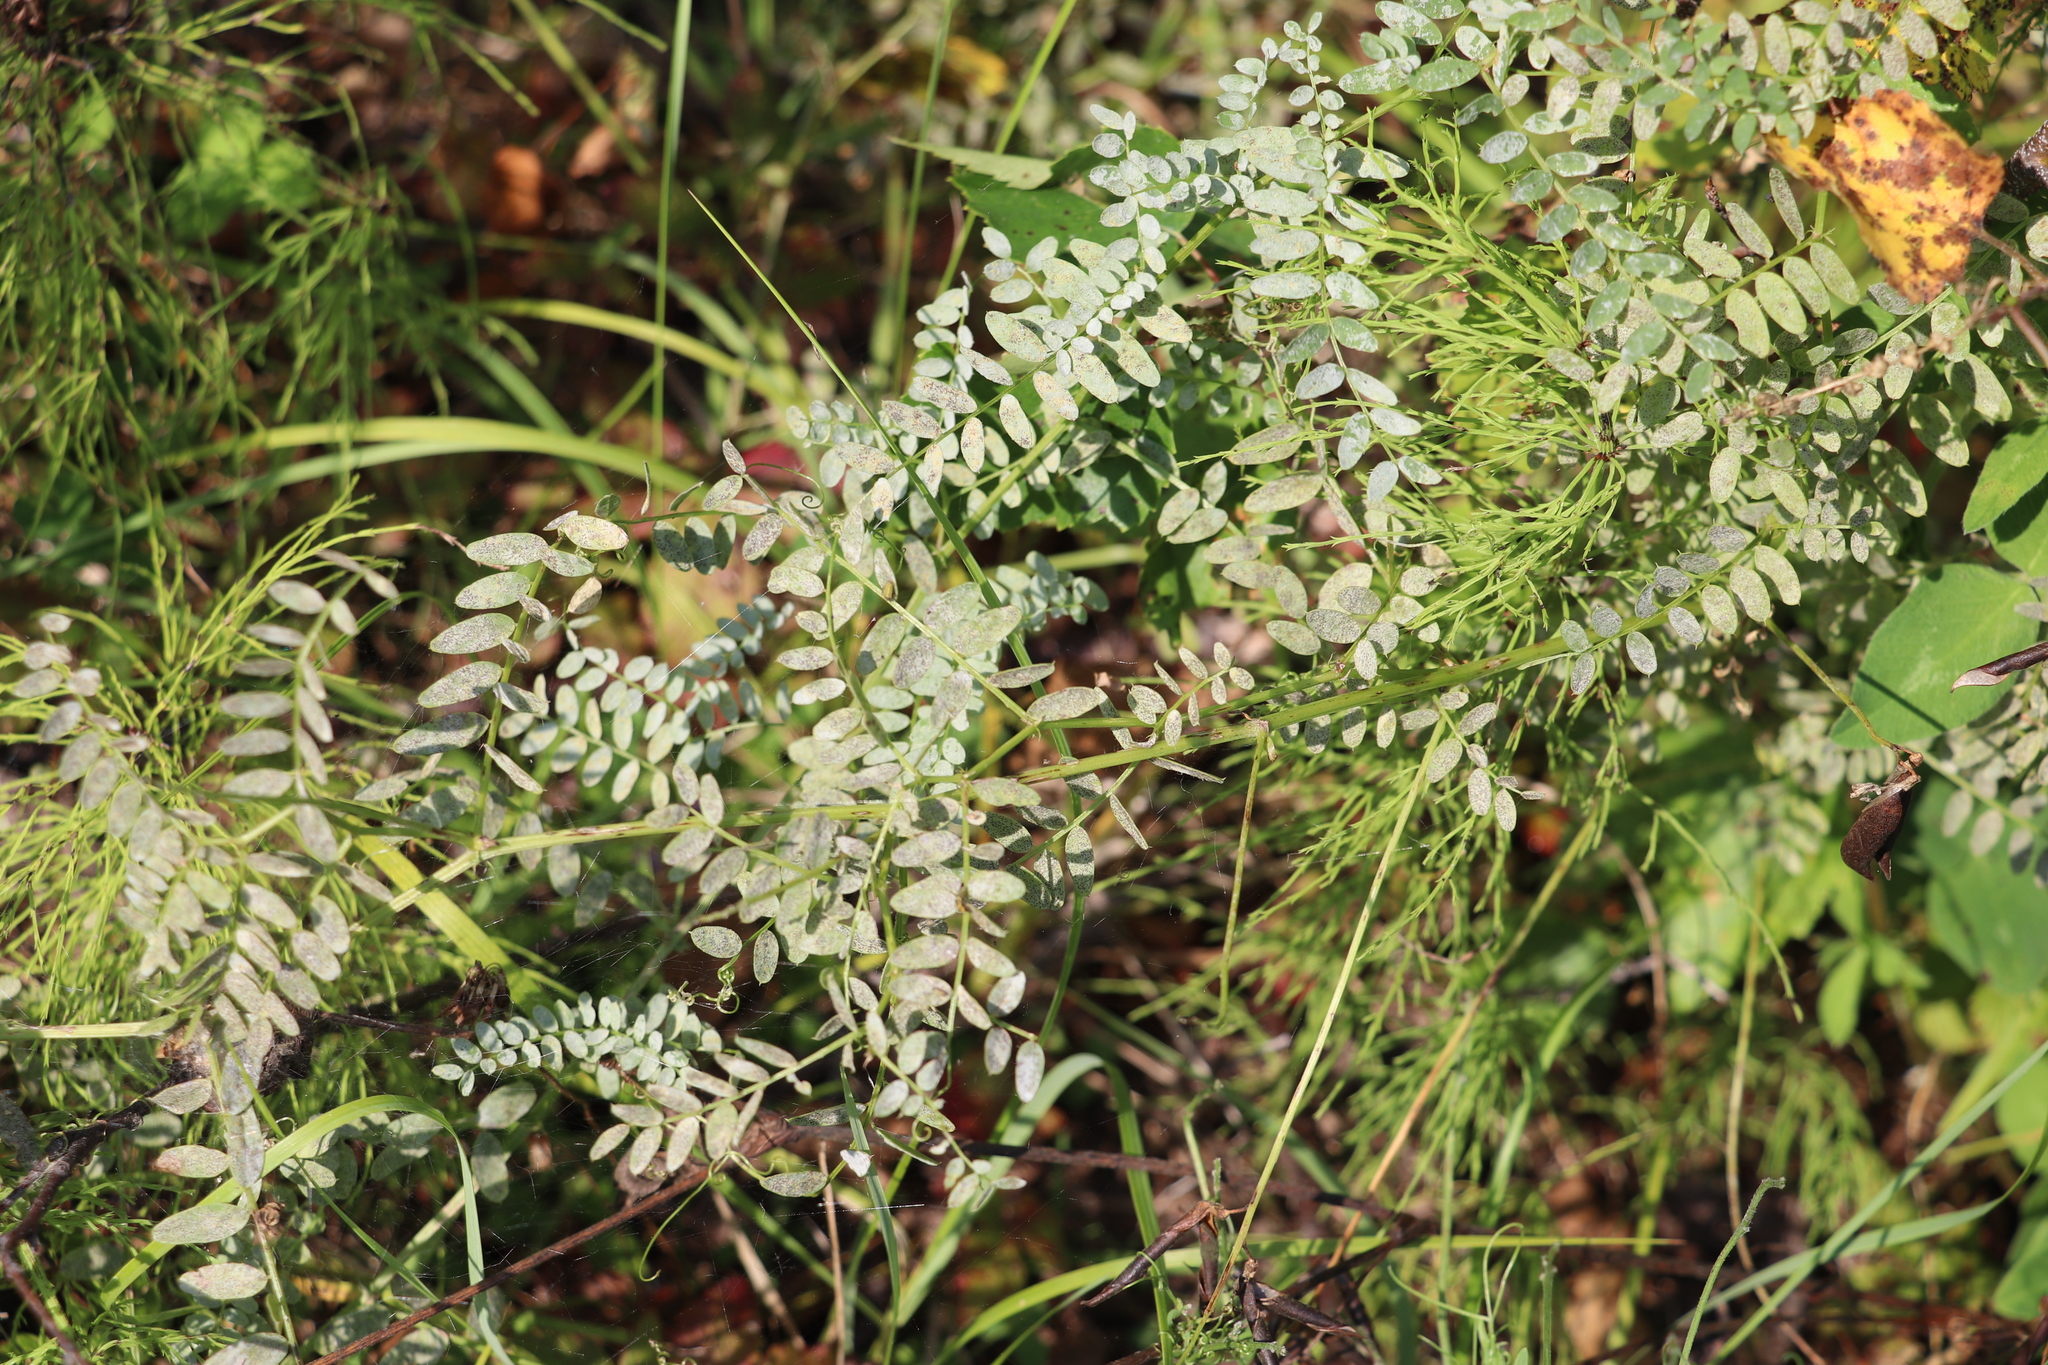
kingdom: Plantae
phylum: Tracheophyta
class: Magnoliopsida
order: Fabales
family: Fabaceae
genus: Vicia
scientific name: Vicia sylvatica
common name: Wood vetch
